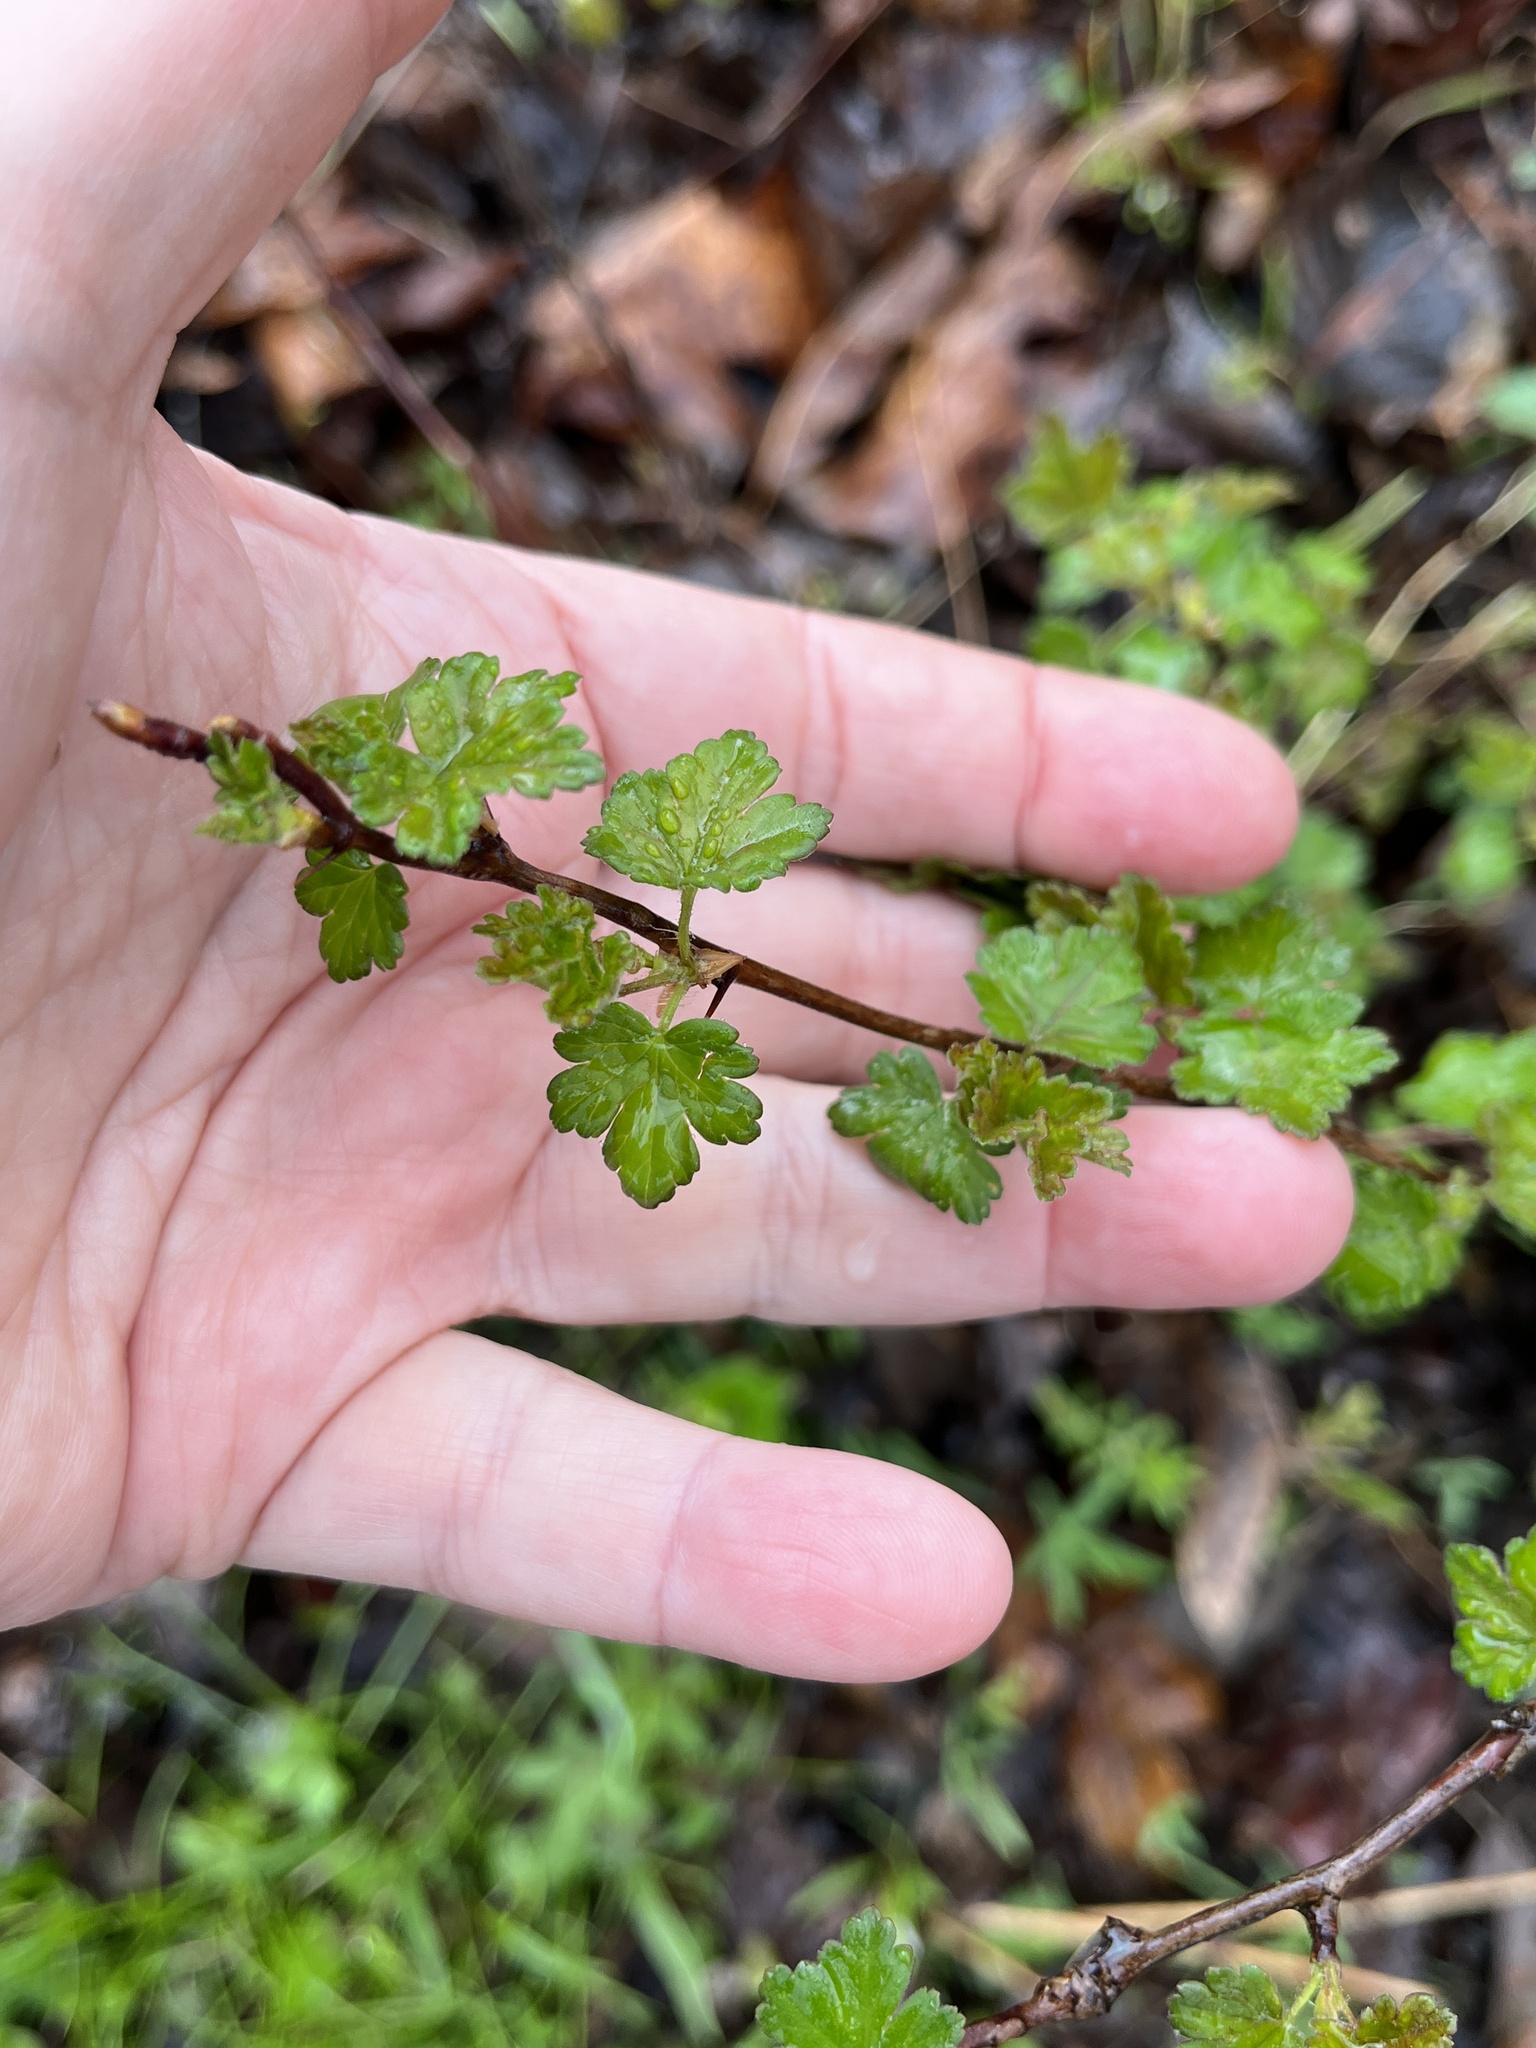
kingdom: Plantae
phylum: Tracheophyta
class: Magnoliopsida
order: Saxifragales
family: Grossulariaceae
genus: Ribes
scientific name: Ribes cynosbati
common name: American gooseberry
